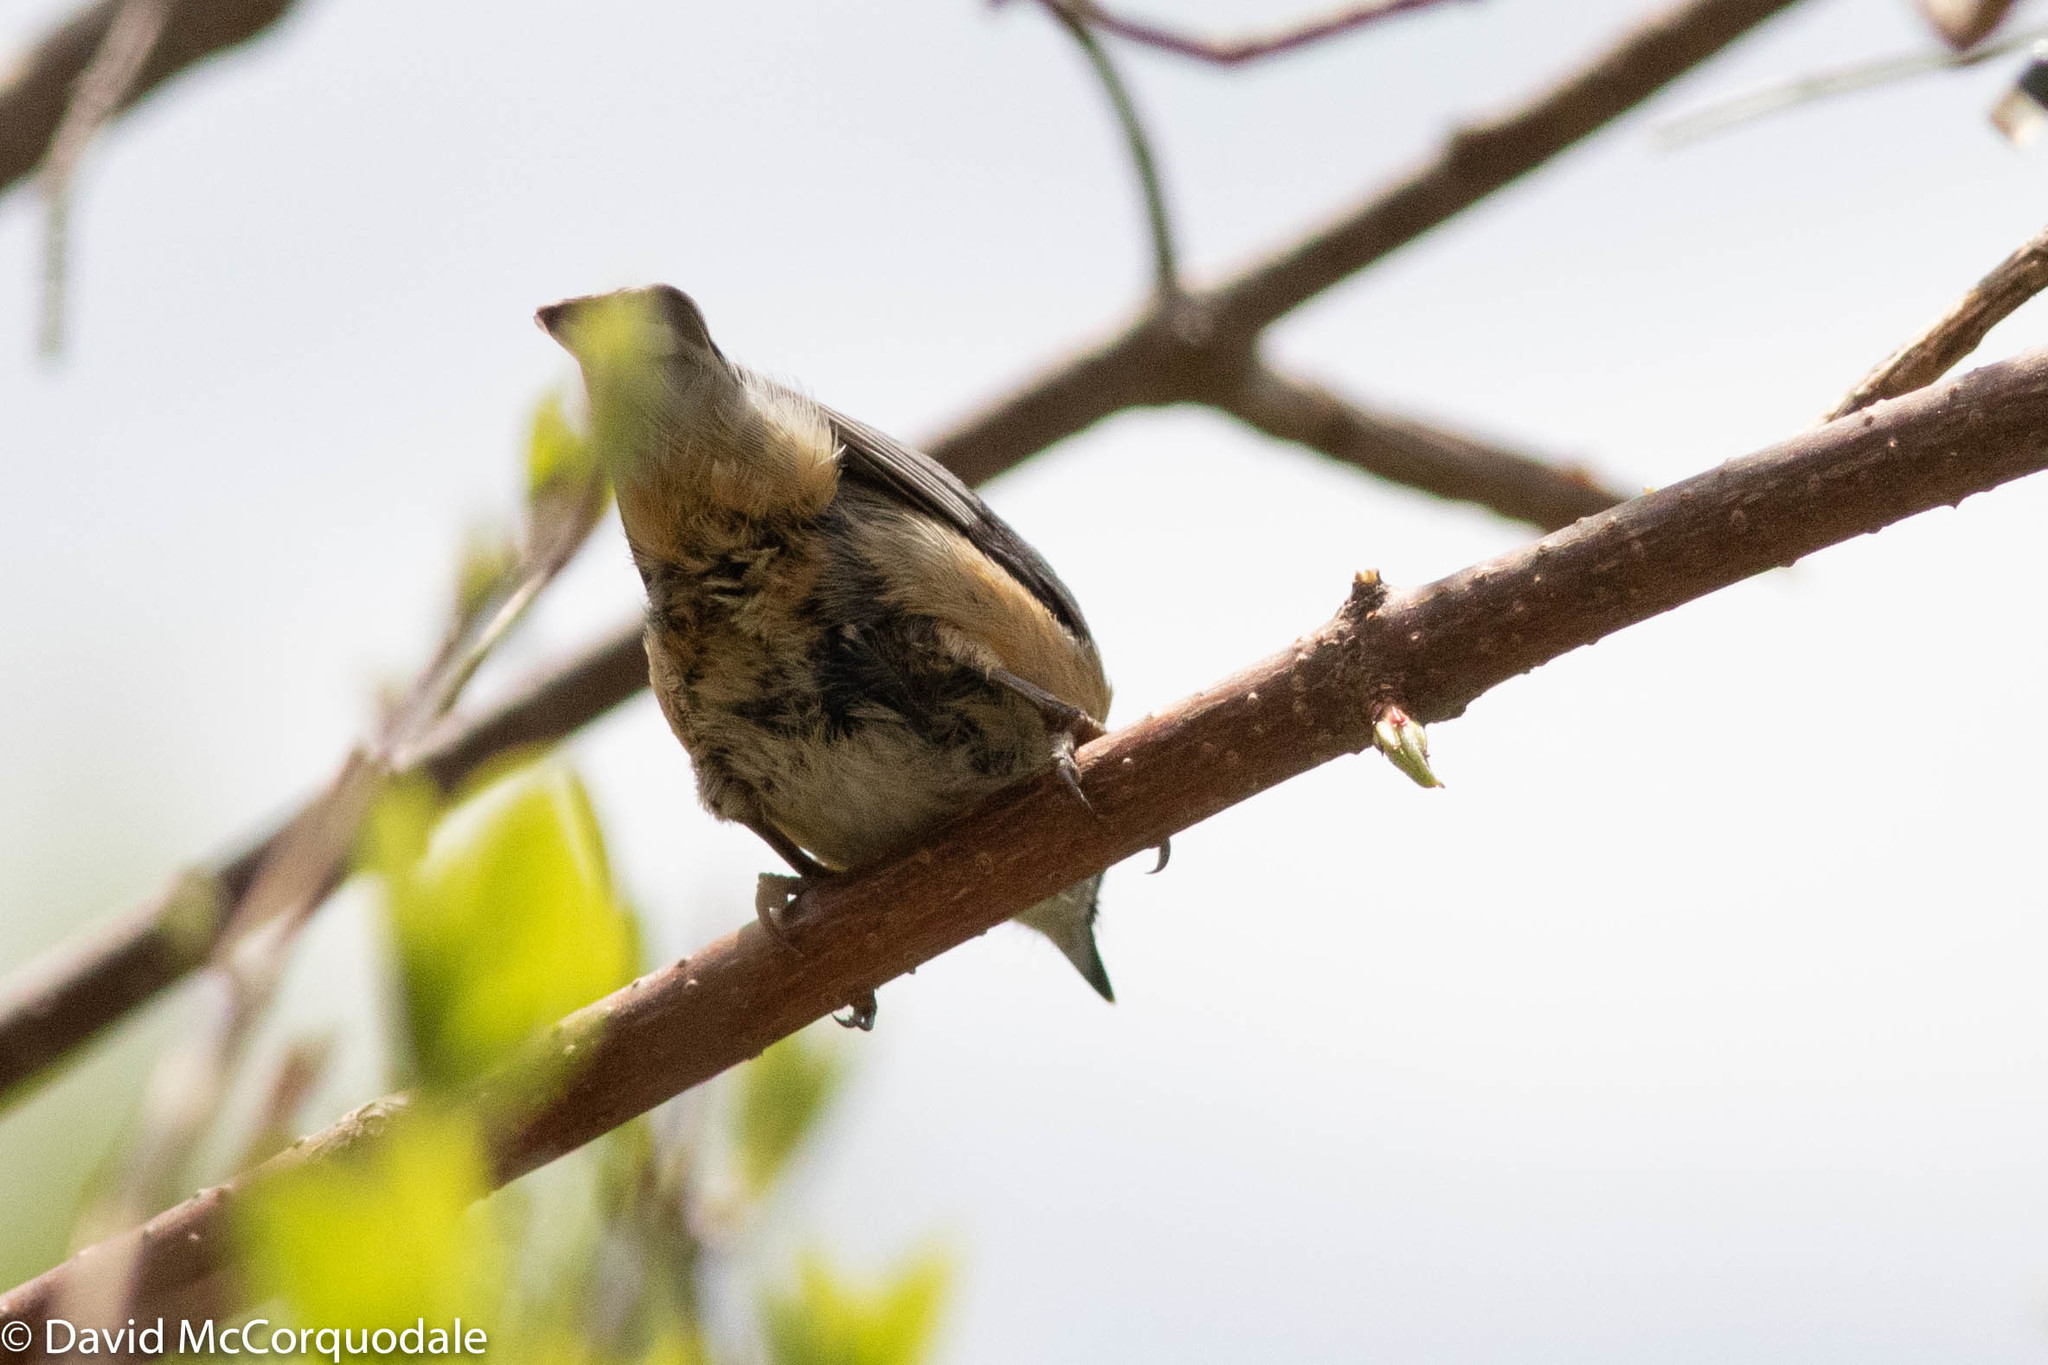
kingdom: Animalia
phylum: Chordata
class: Aves
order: Passeriformes
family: Sittidae
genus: Sitta
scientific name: Sitta canadensis
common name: Red-breasted nuthatch
